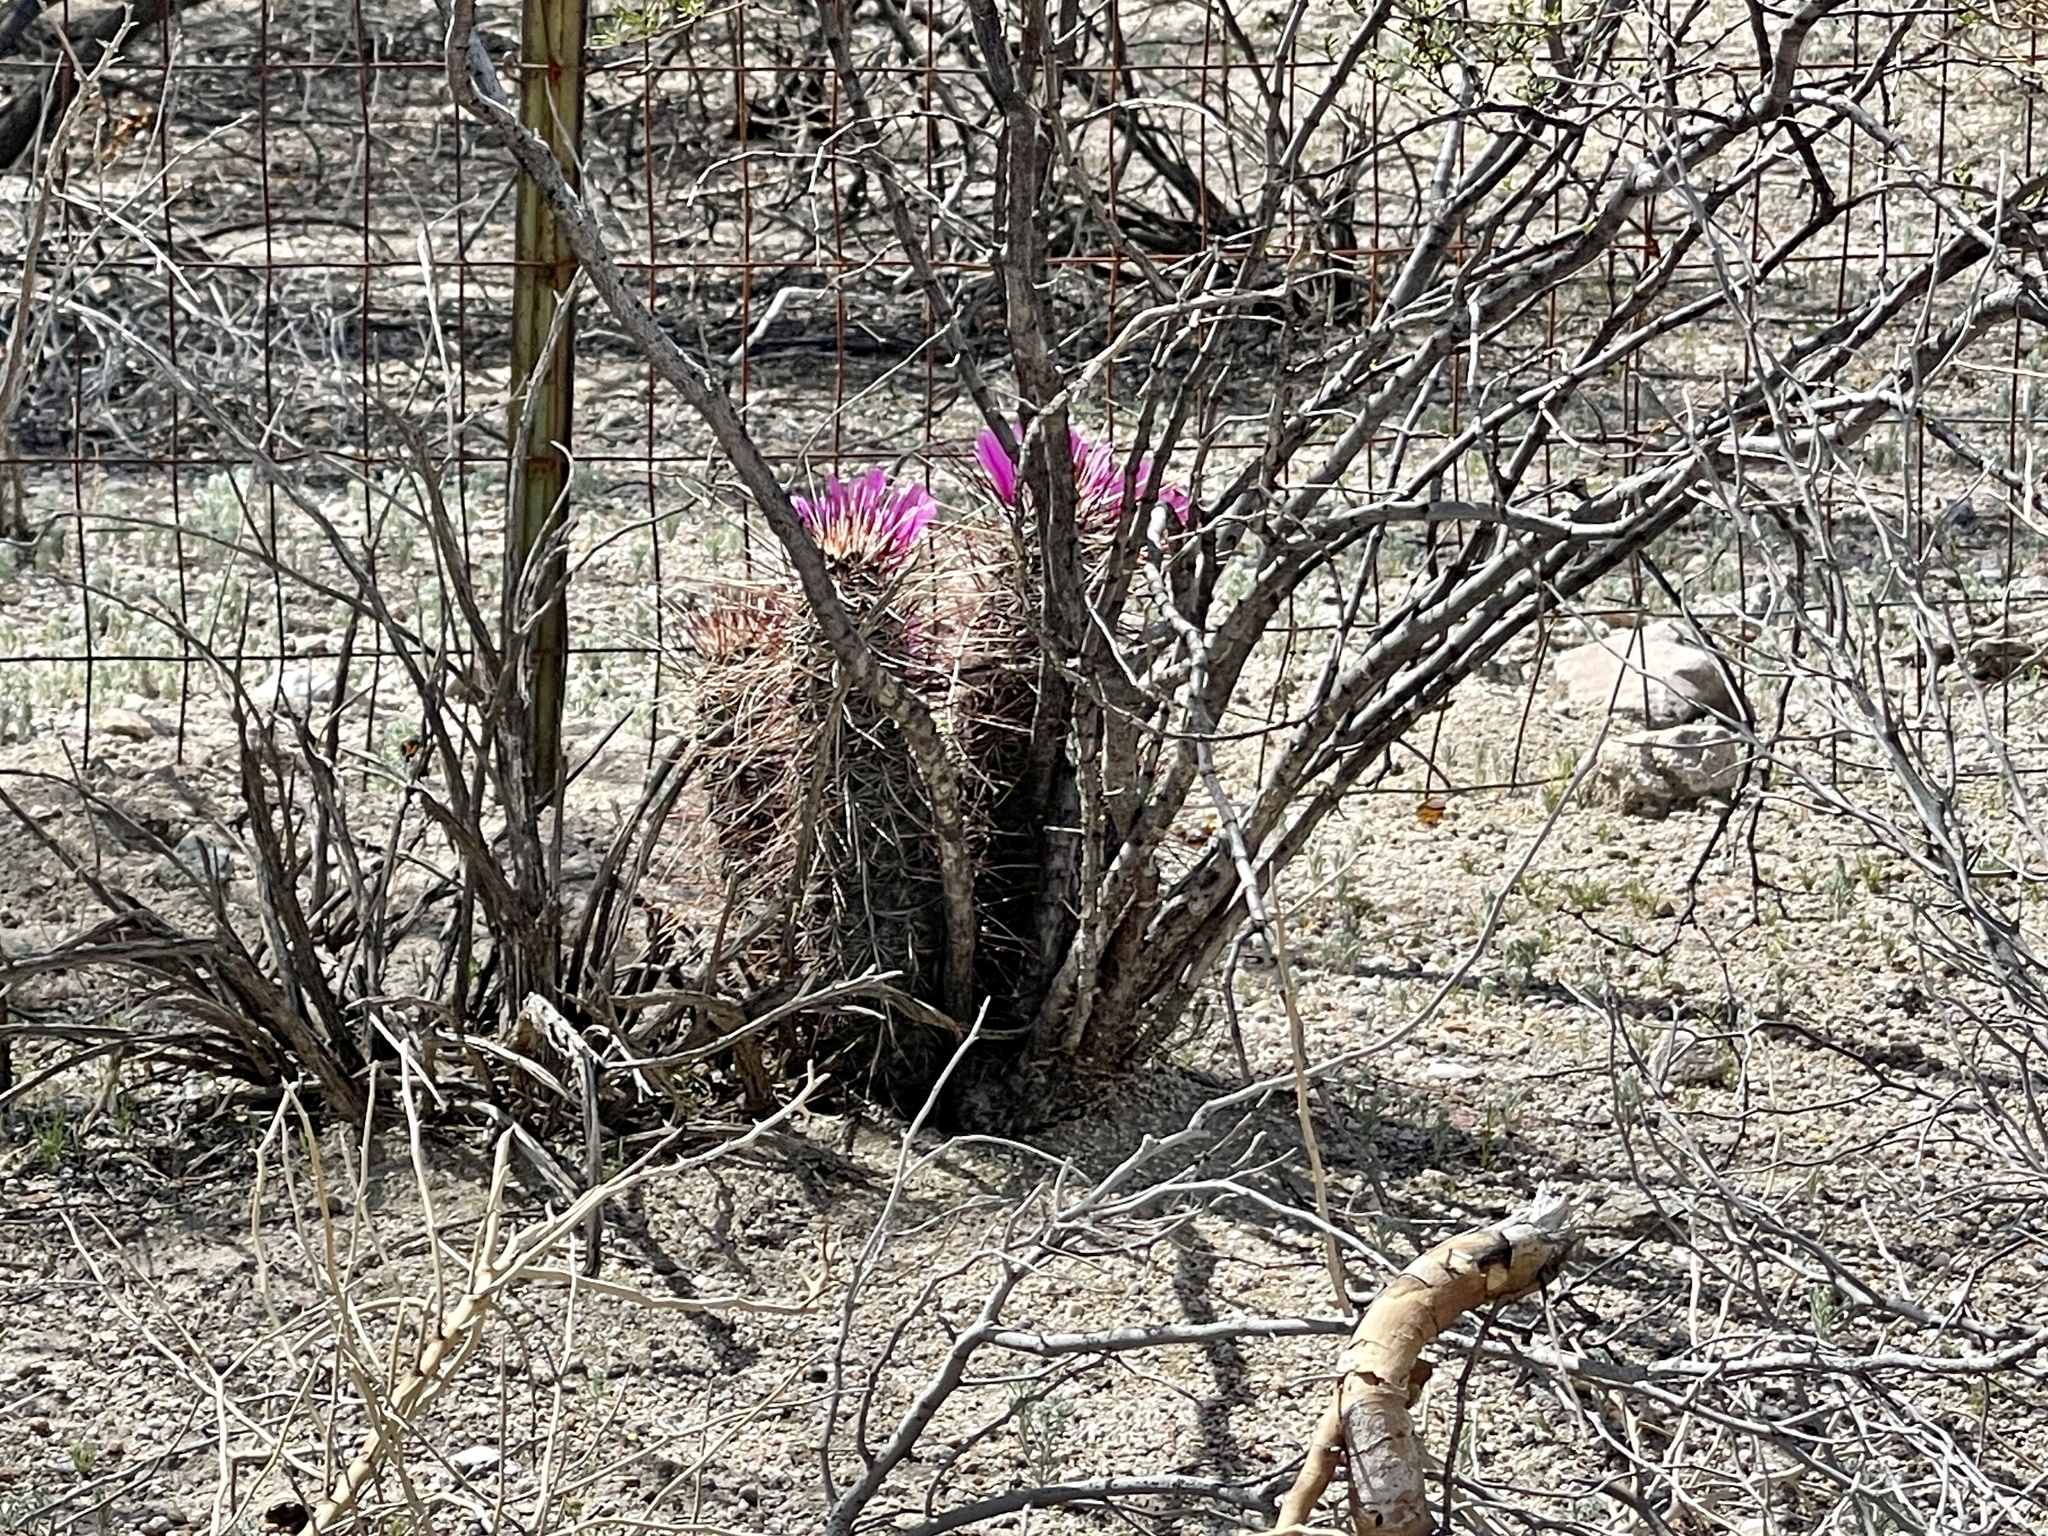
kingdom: Plantae
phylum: Tracheophyta
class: Magnoliopsida
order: Caryophyllales
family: Cactaceae
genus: Echinocereus
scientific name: Echinocereus engelmannii
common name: Engelmann's hedgehog cactus
